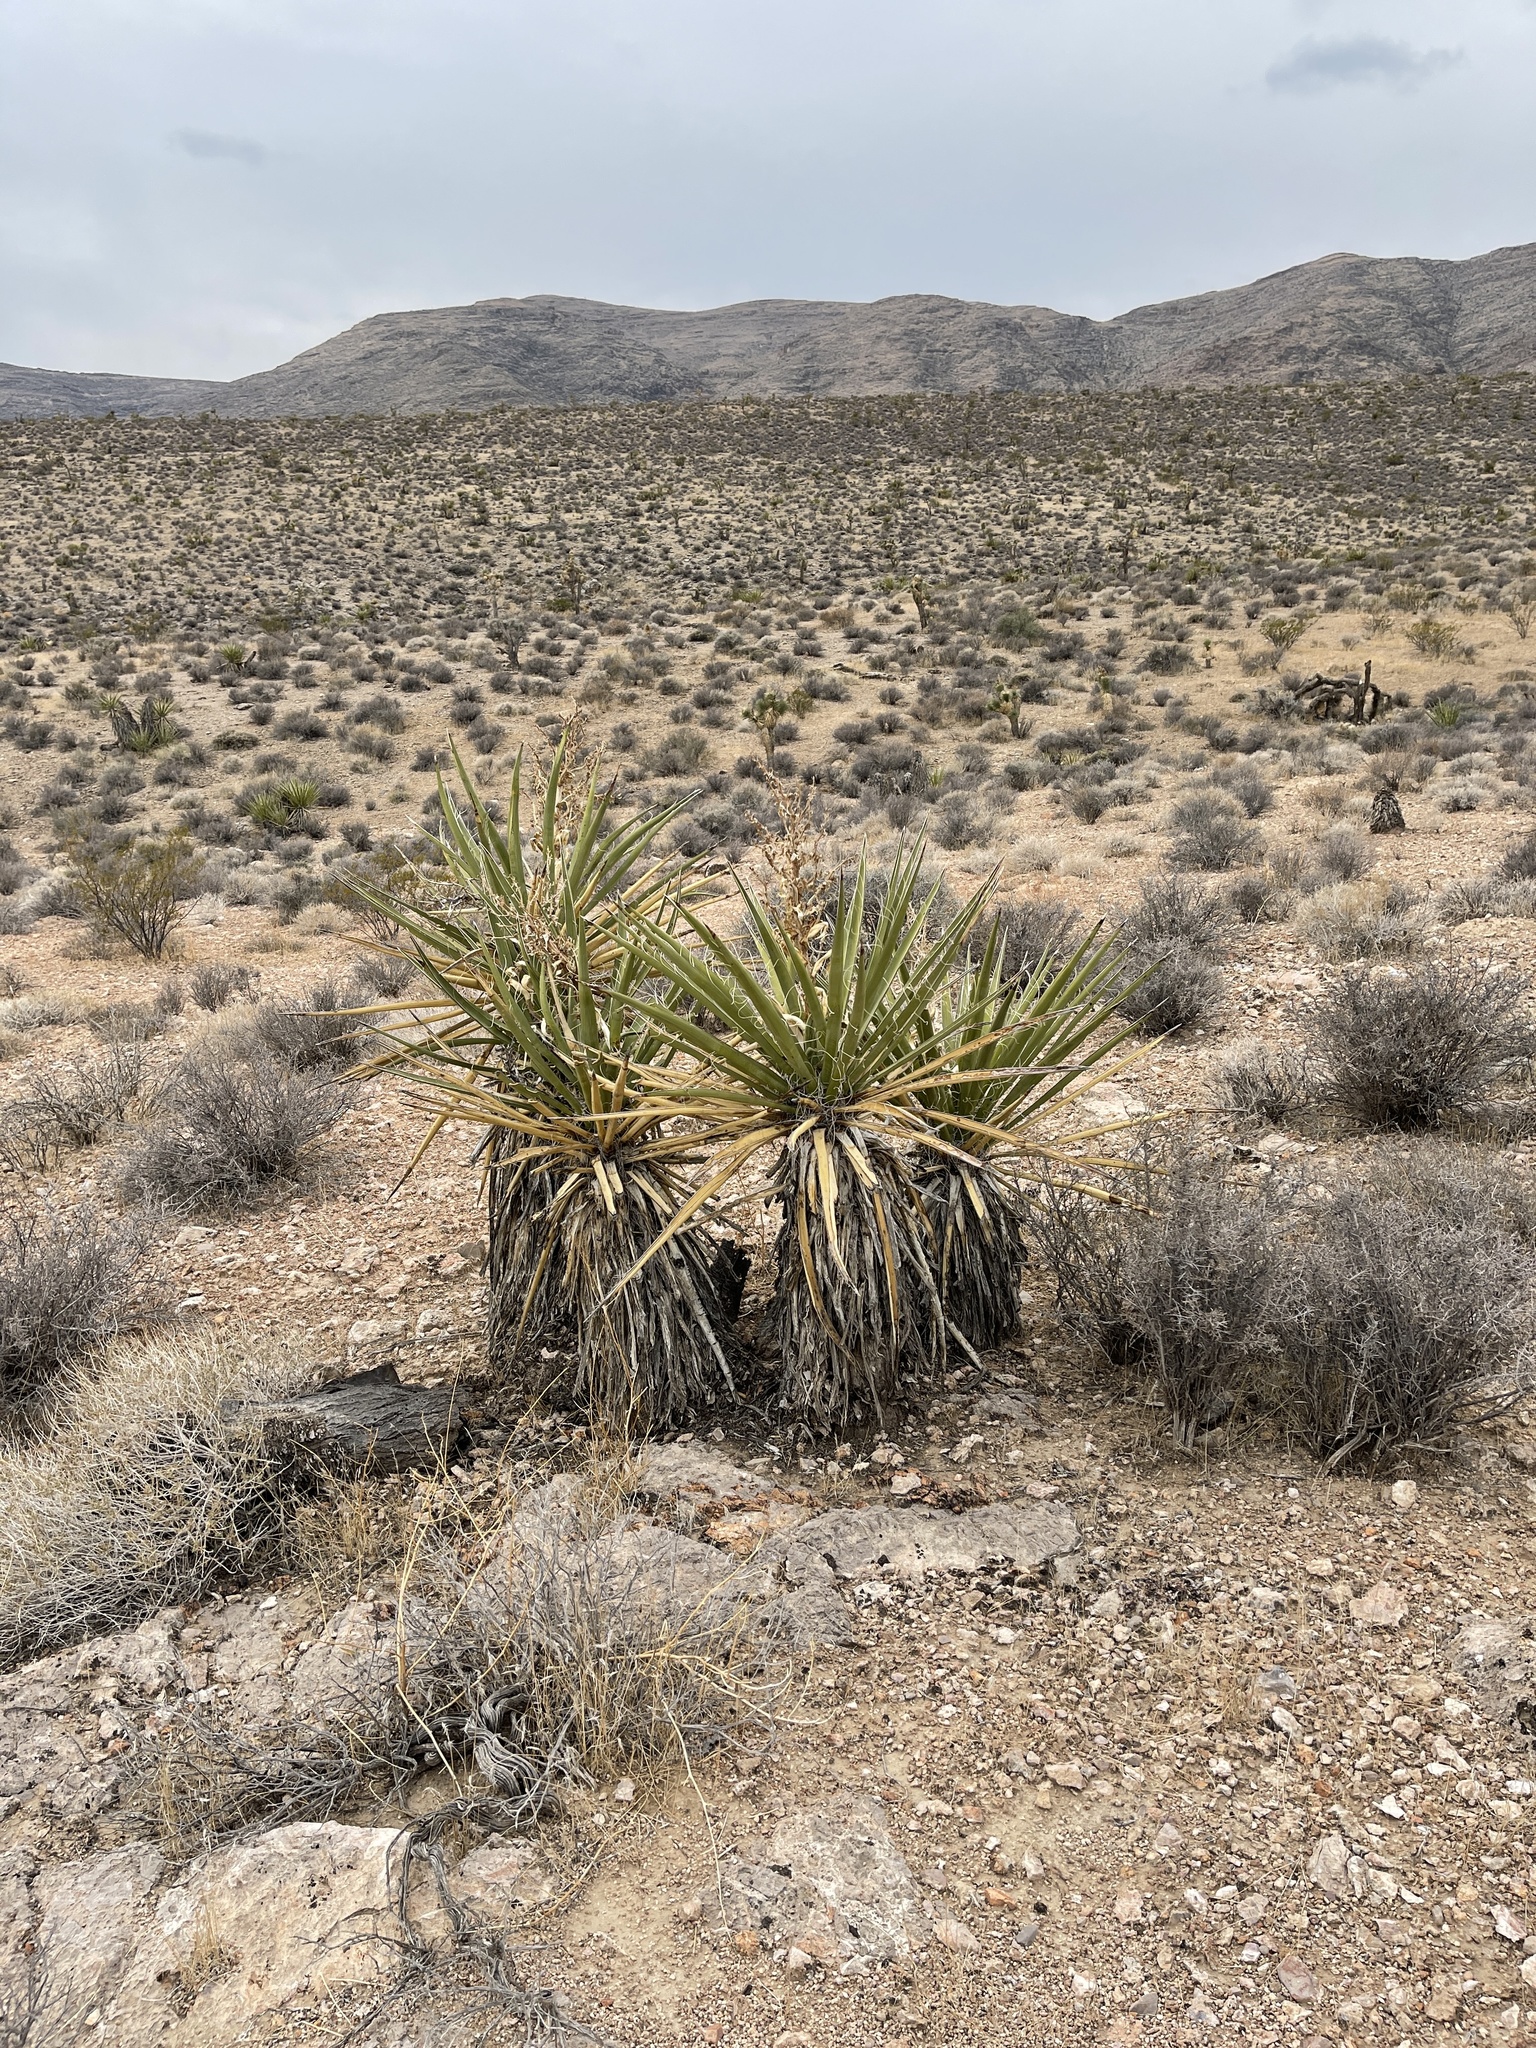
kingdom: Plantae
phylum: Tracheophyta
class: Liliopsida
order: Asparagales
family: Asparagaceae
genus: Yucca
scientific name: Yucca schidigera
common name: Mojave yucca
